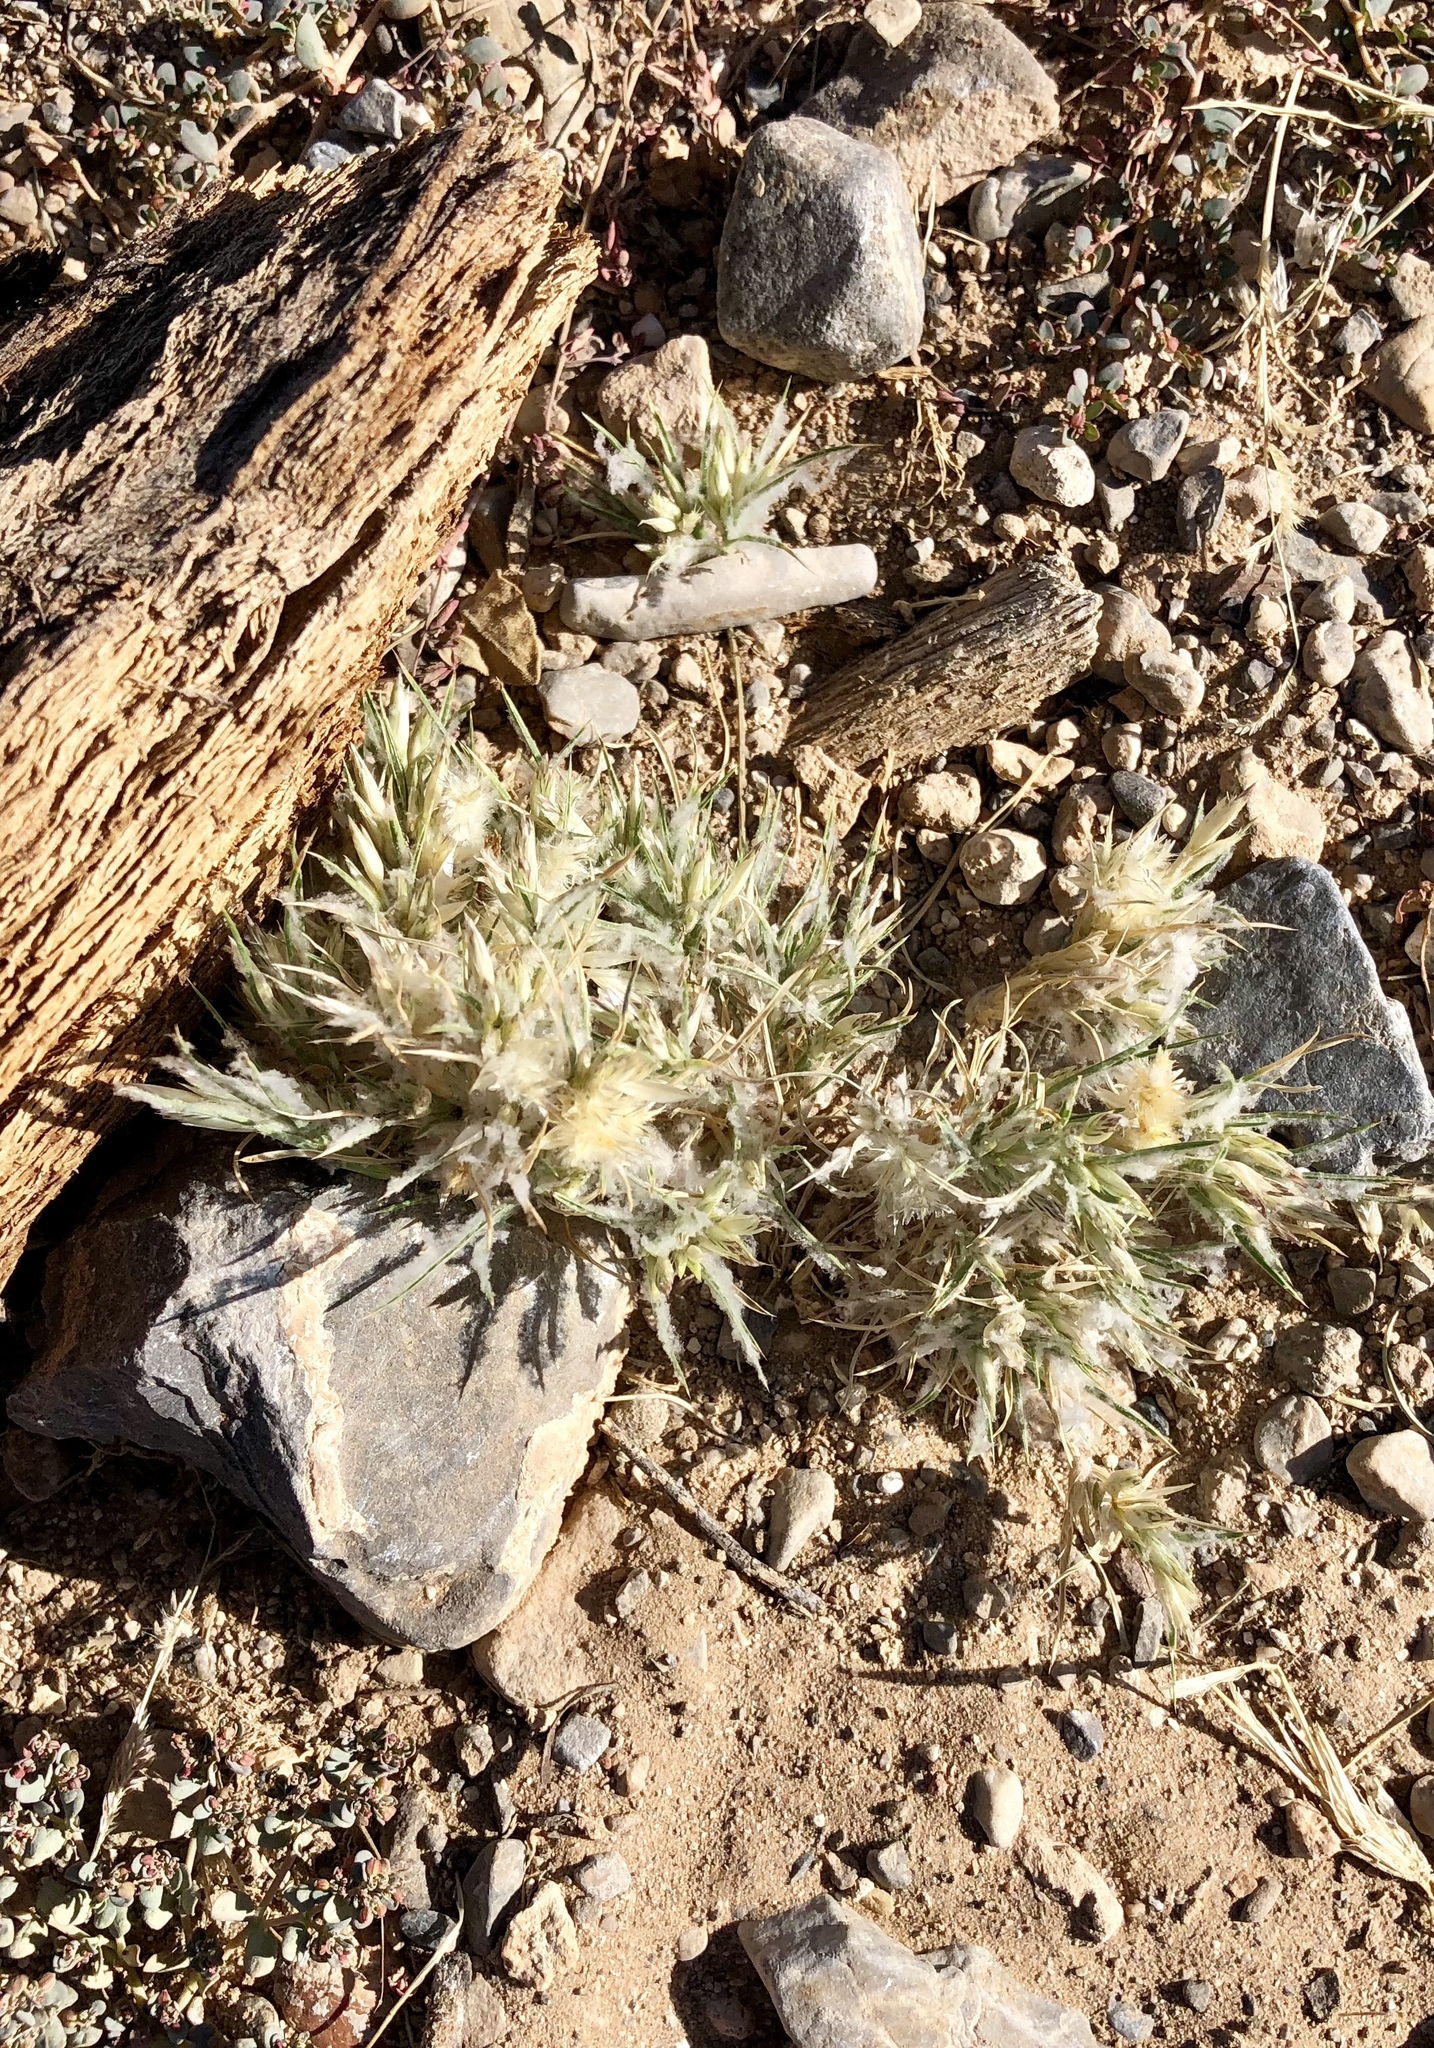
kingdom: Plantae
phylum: Tracheophyta
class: Liliopsida
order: Poales
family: Poaceae
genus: Dasyochloa
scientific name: Dasyochloa pulchella
